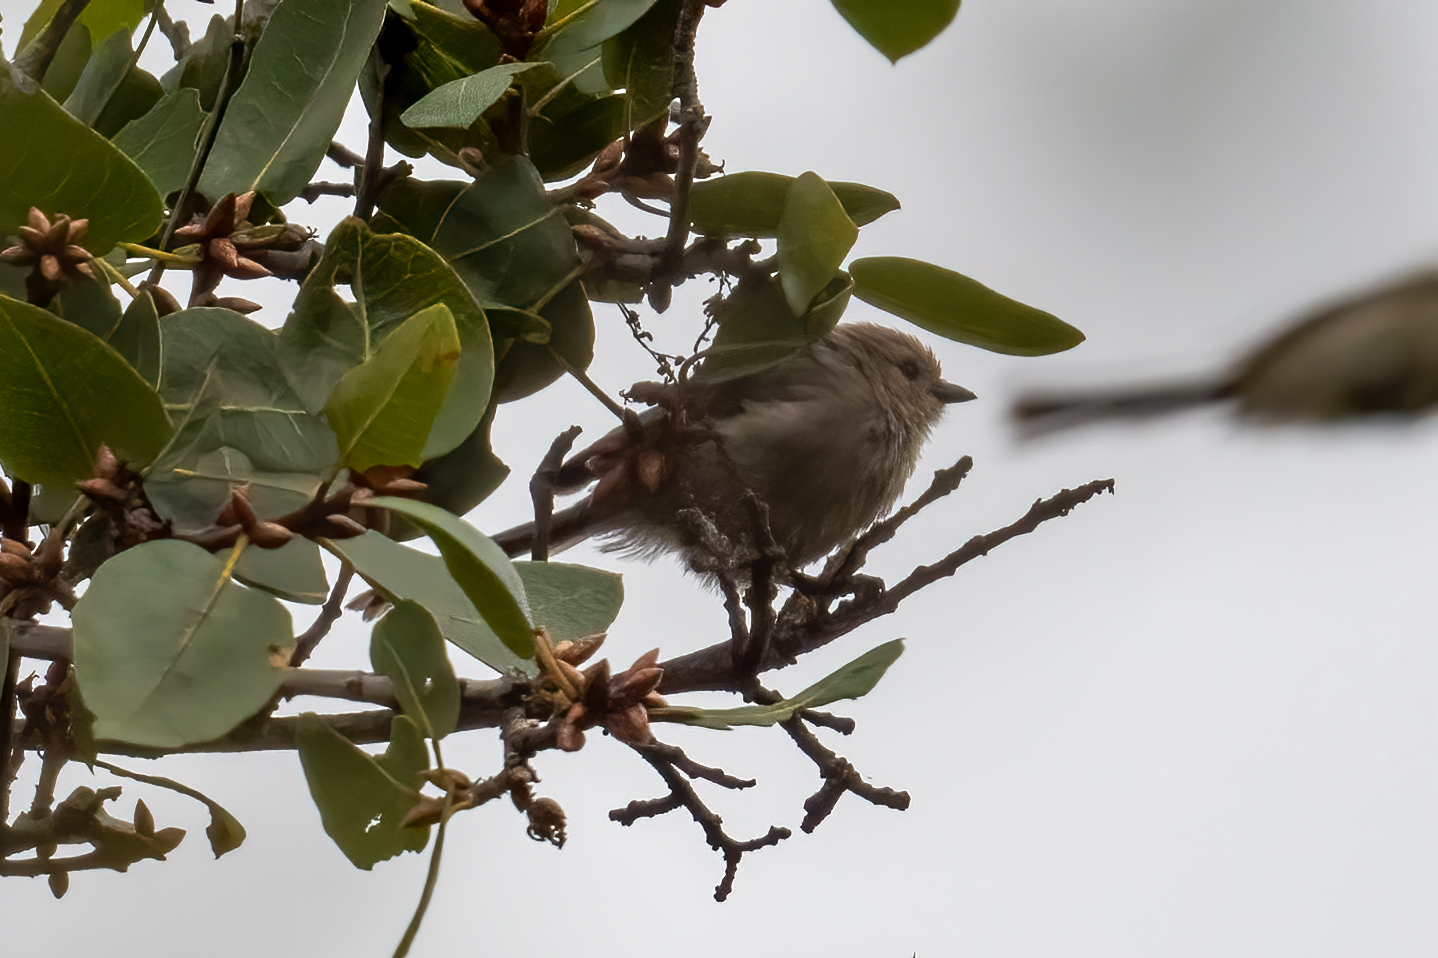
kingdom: Animalia
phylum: Chordata
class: Aves
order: Passeriformes
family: Aegithalidae
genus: Psaltriparus
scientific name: Psaltriparus minimus
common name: American bushtit
